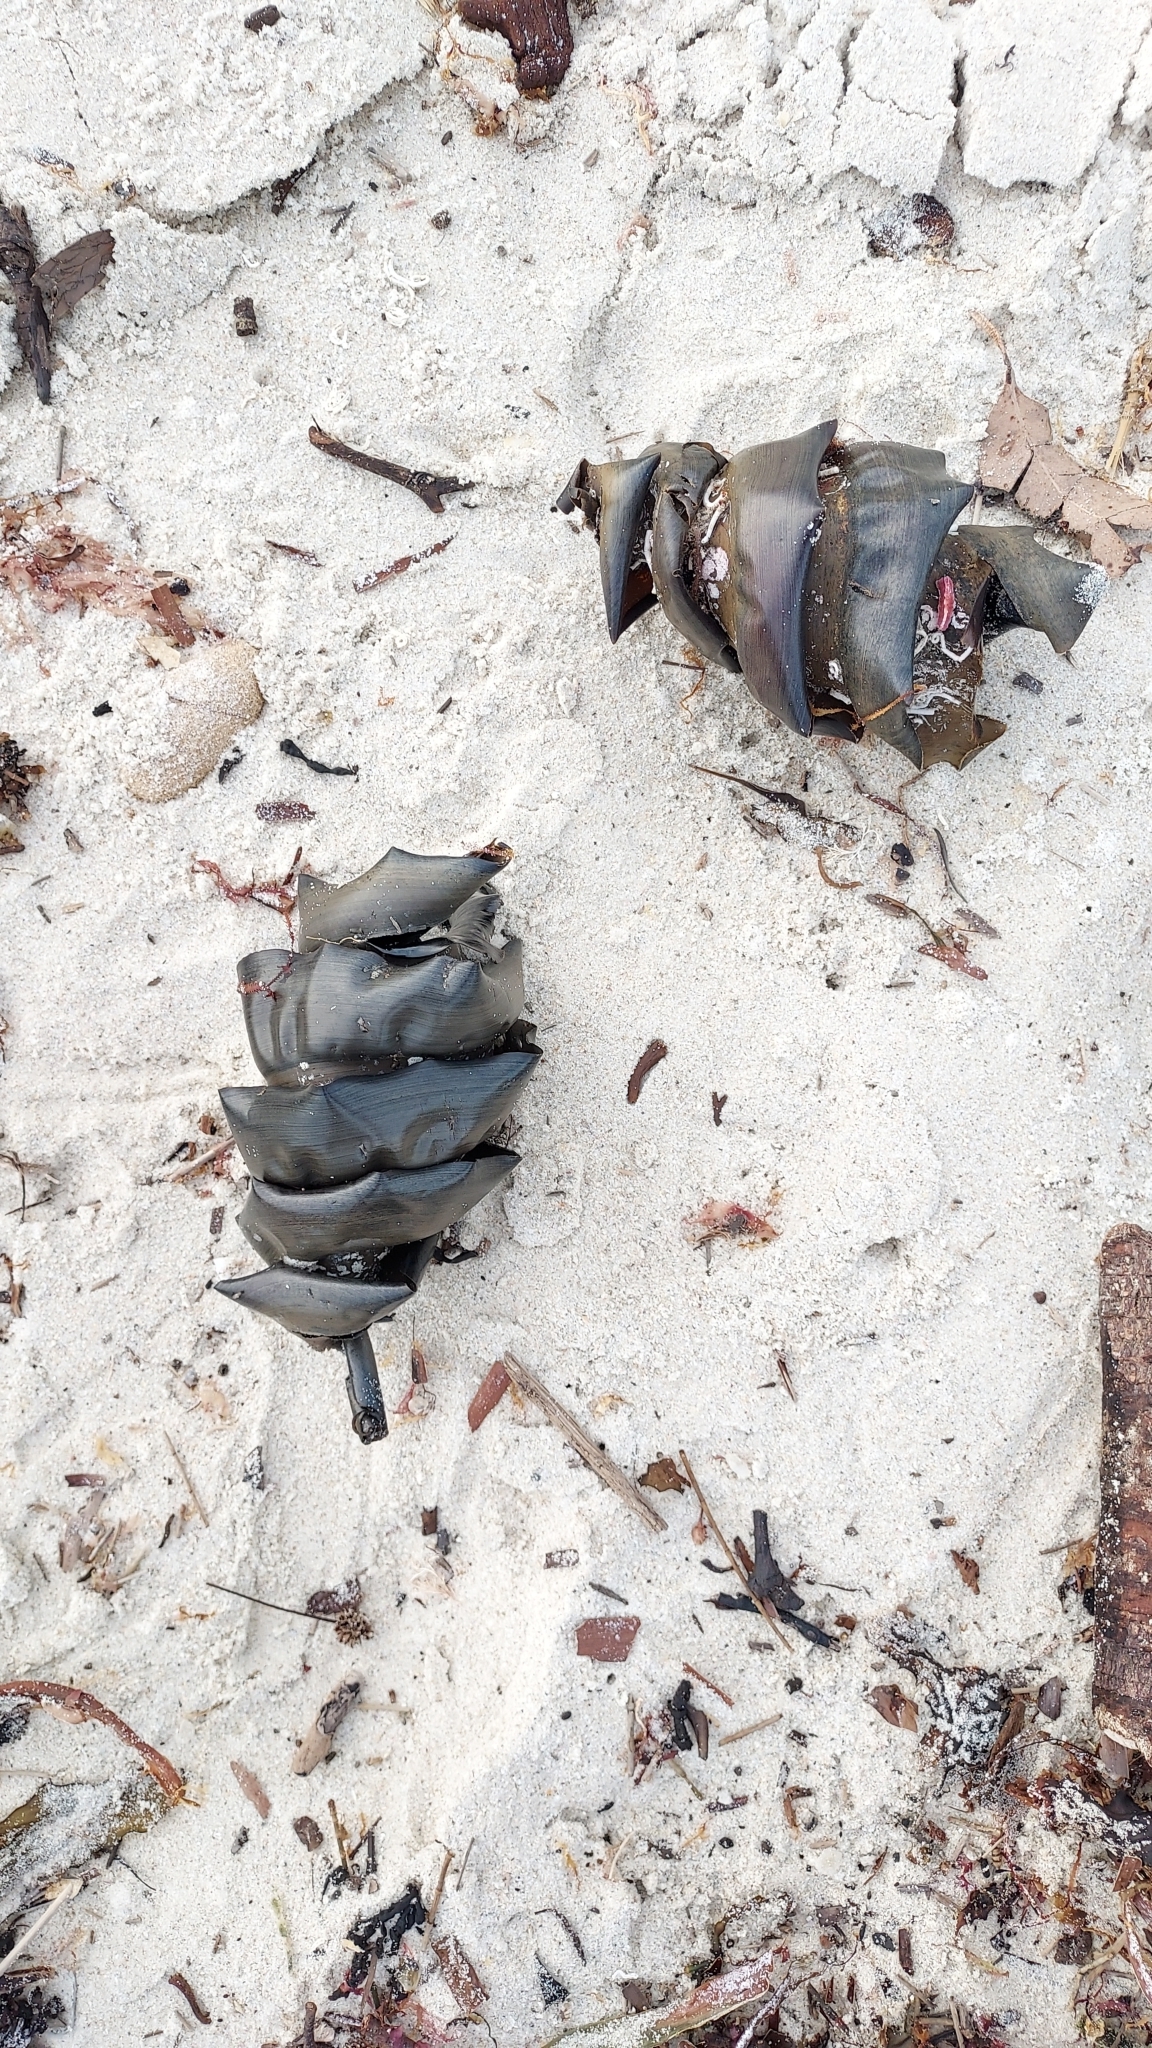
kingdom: Animalia
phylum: Chordata
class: Elasmobranchii
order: Heterodontiformes
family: Heterodontidae
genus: Heterodontus
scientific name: Heterodontus portusjacksoni
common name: Port jackson shark
